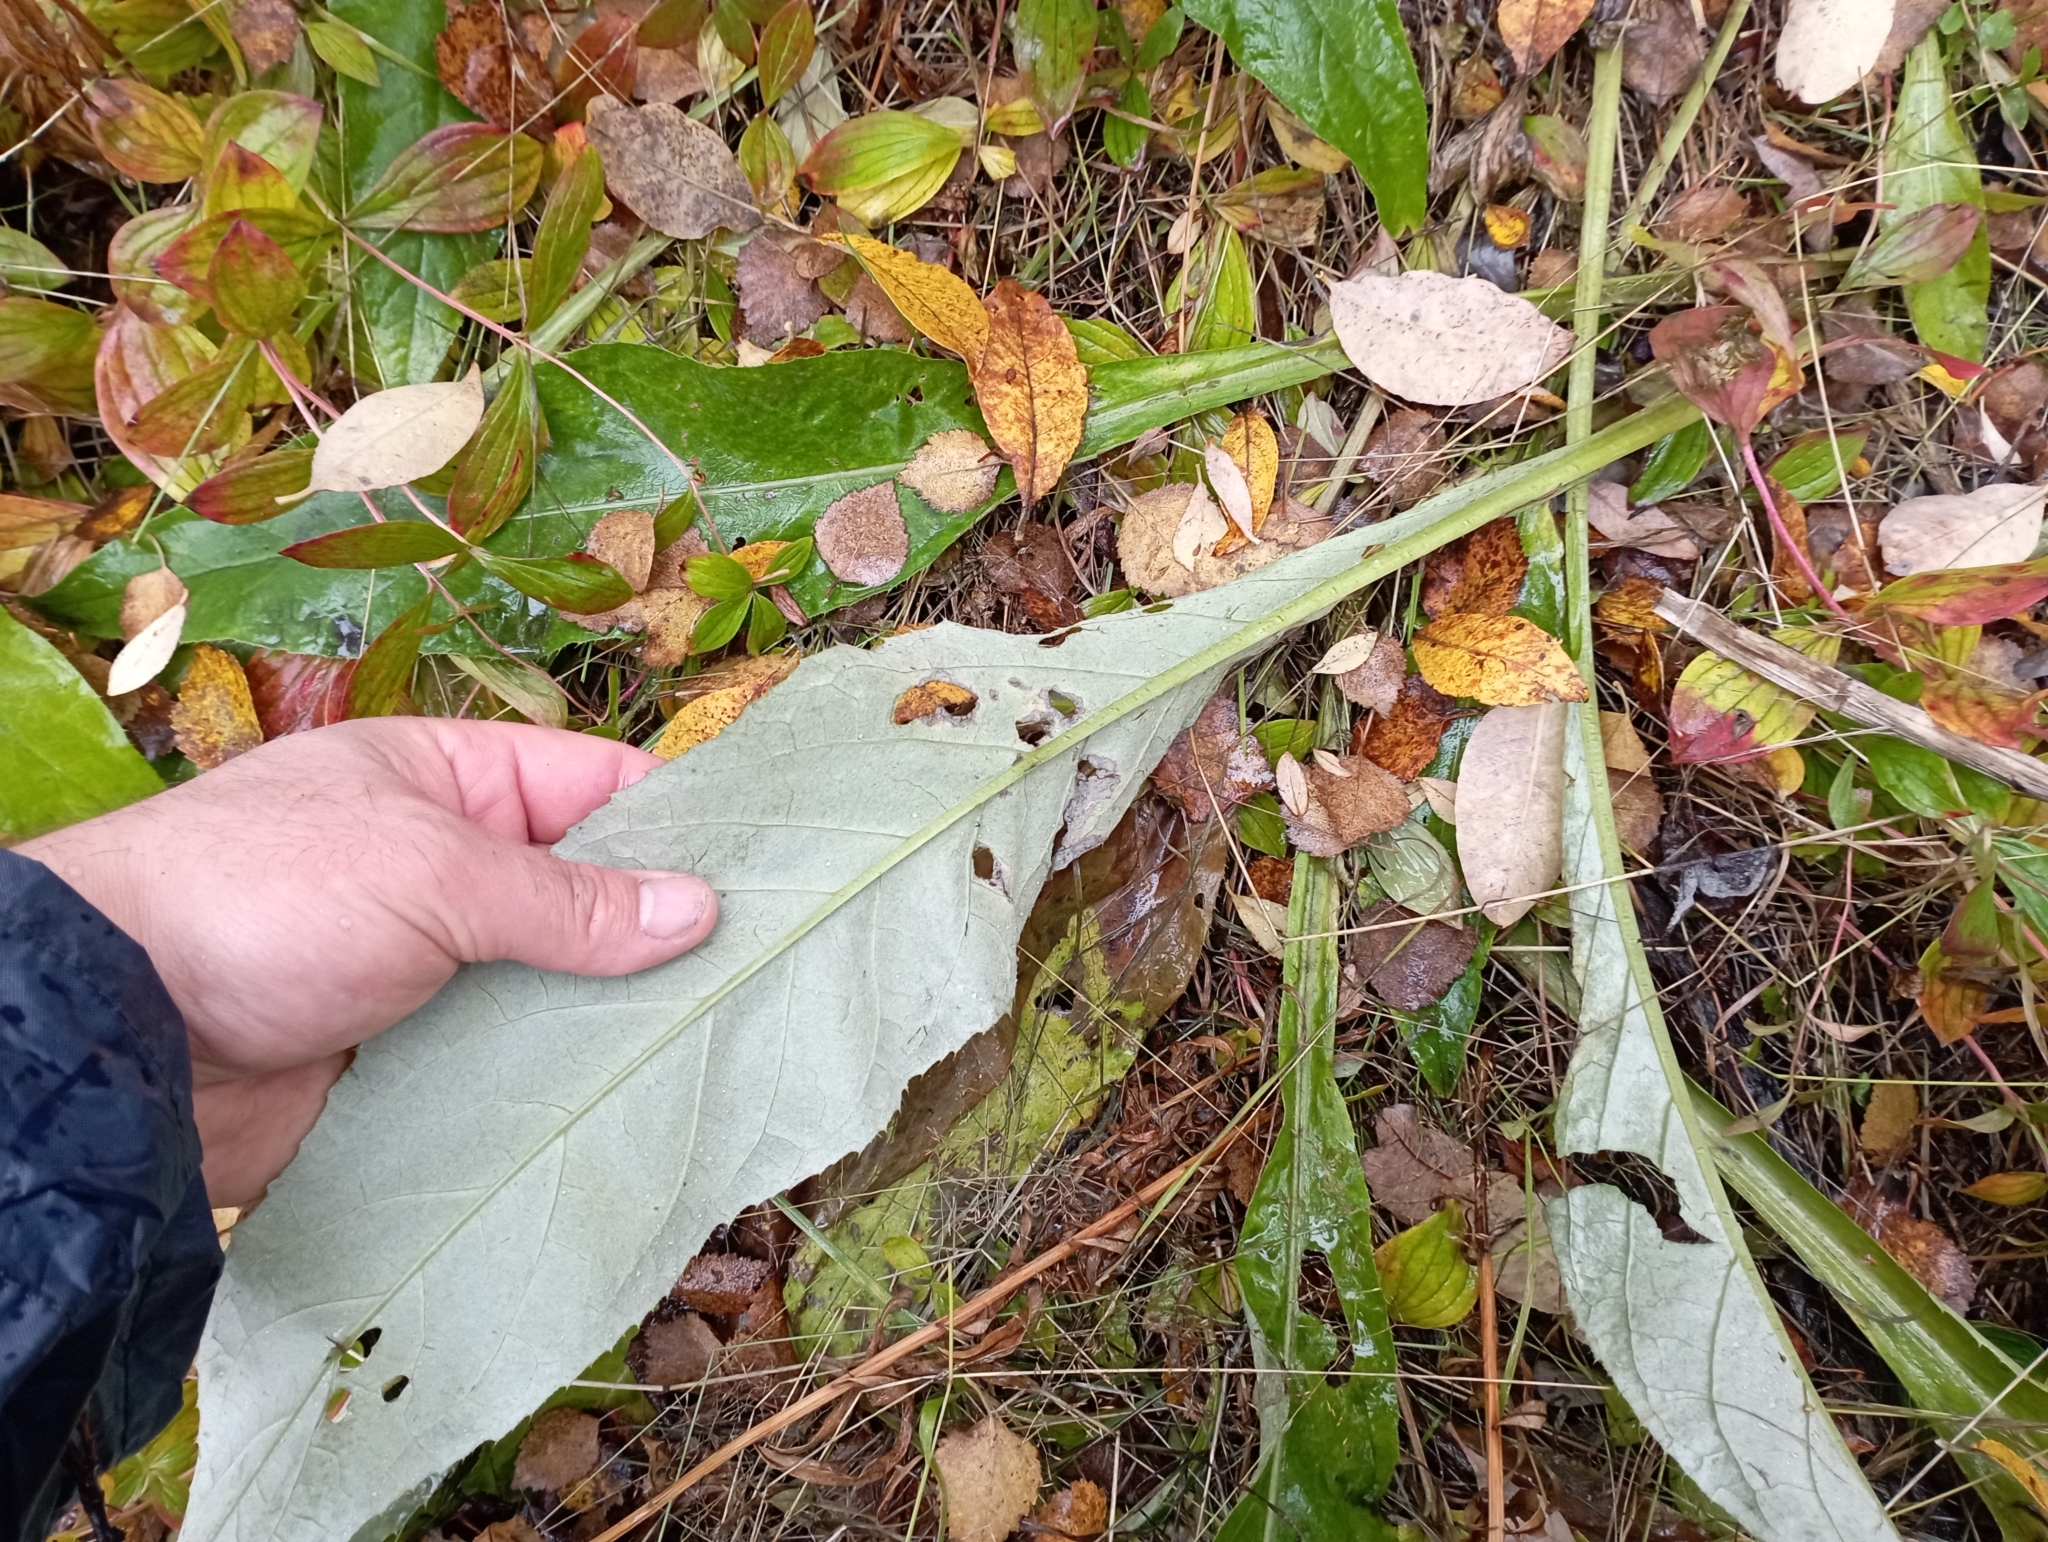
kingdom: Plantae
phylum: Tracheophyta
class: Magnoliopsida
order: Asterales
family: Asteraceae
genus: Cirsium
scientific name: Cirsium heterophyllum
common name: Melancholy thistle
